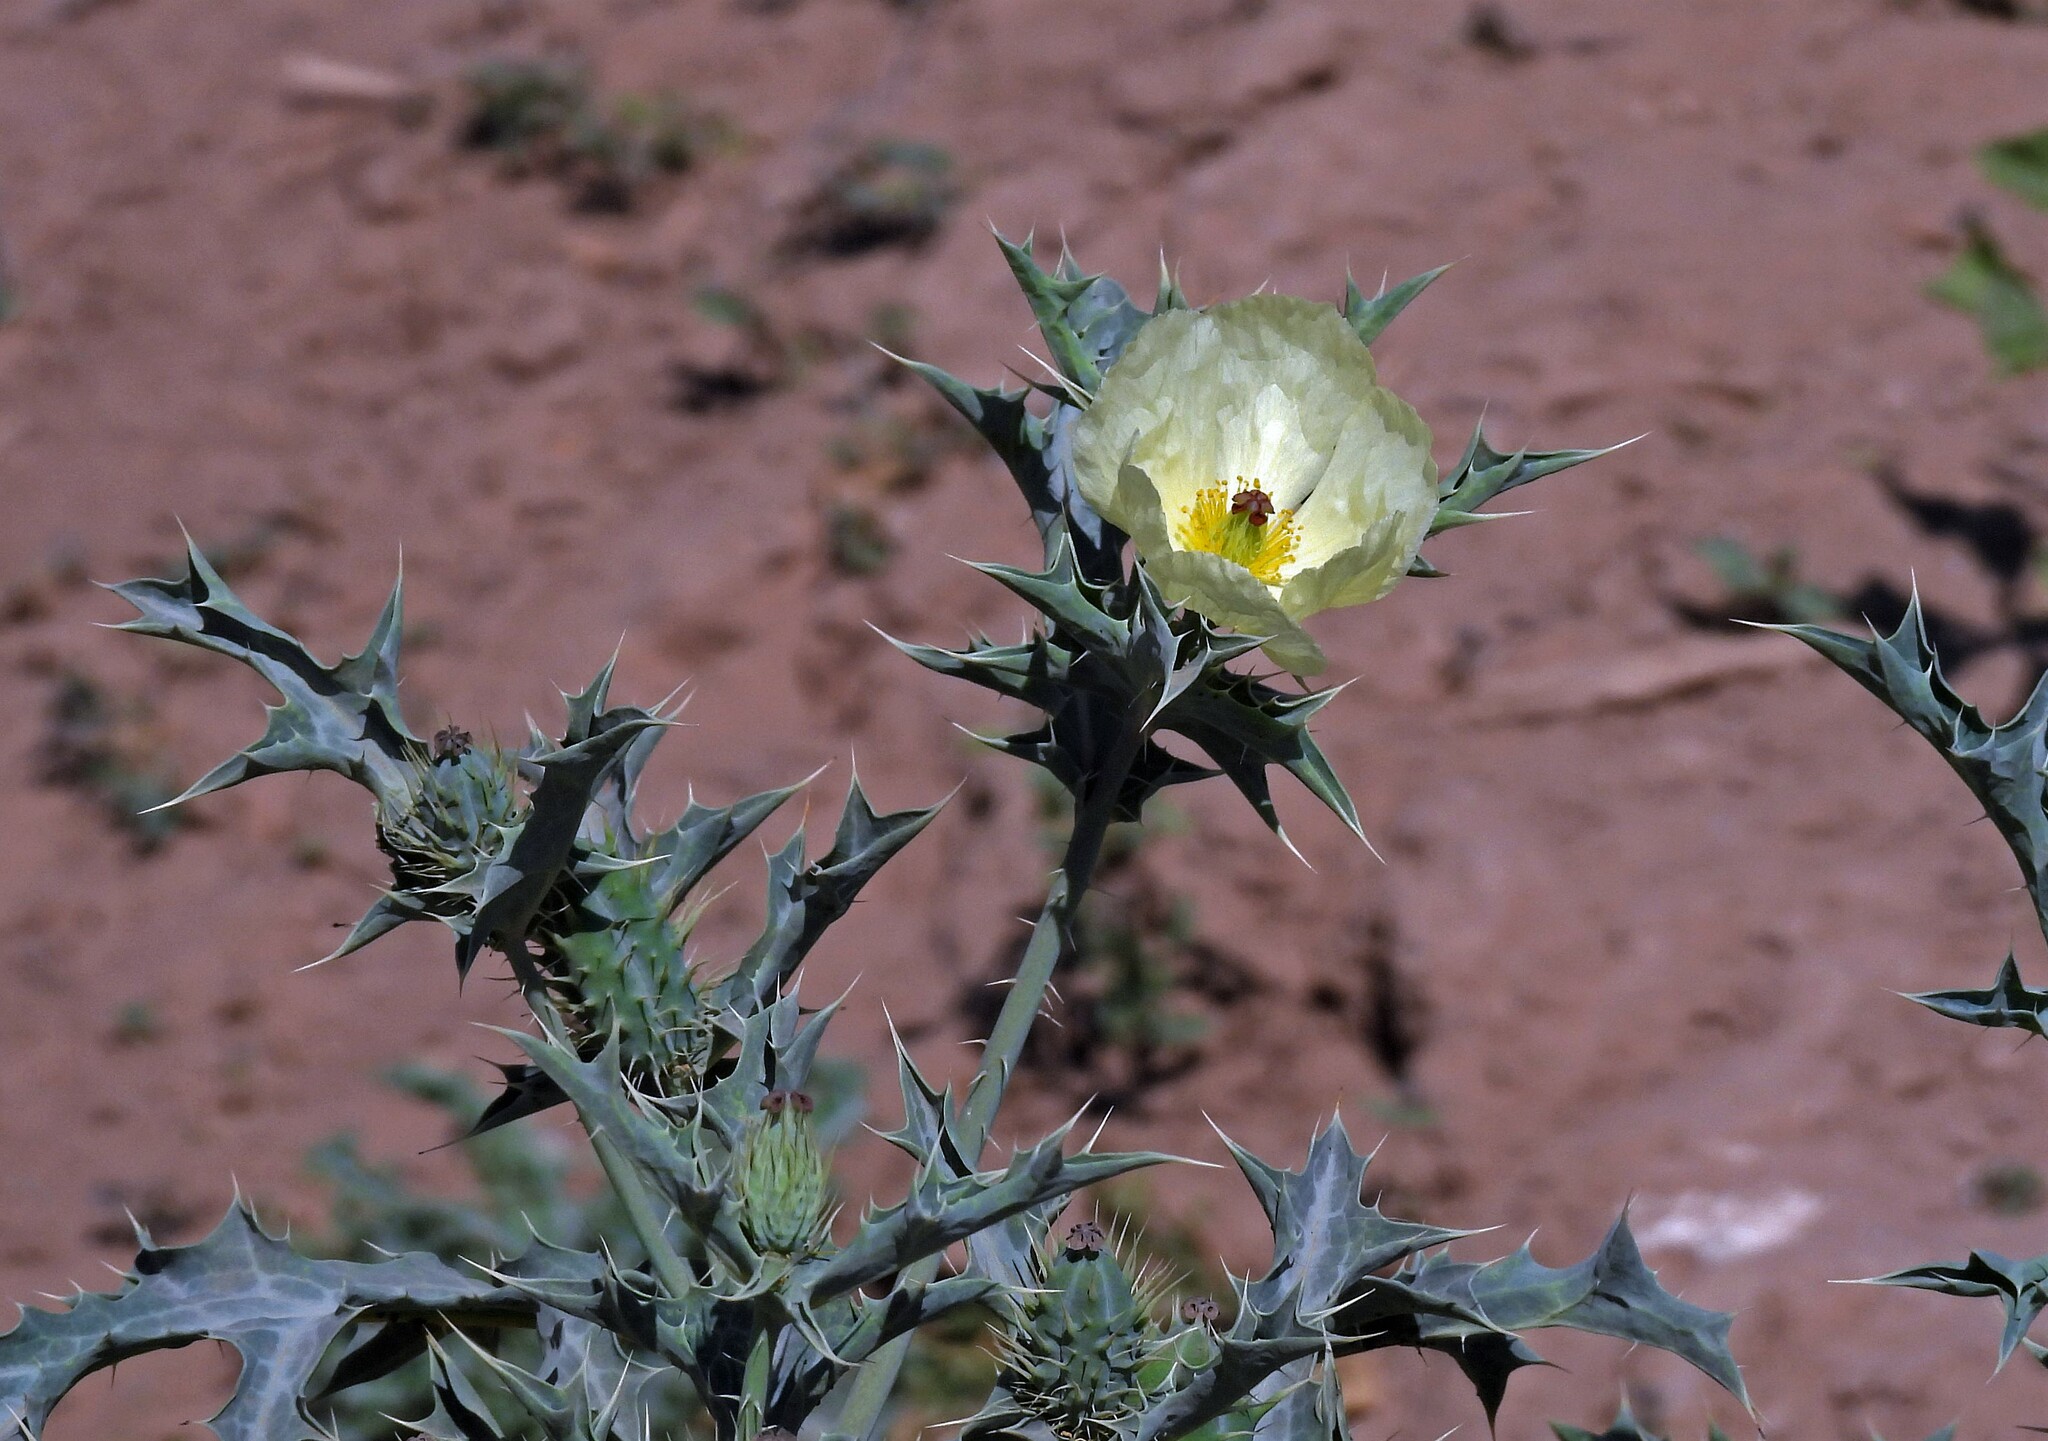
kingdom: Plantae
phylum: Tracheophyta
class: Magnoliopsida
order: Ranunculales
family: Papaveraceae
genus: Argemone
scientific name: Argemone subfusiformis
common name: American-poppy
